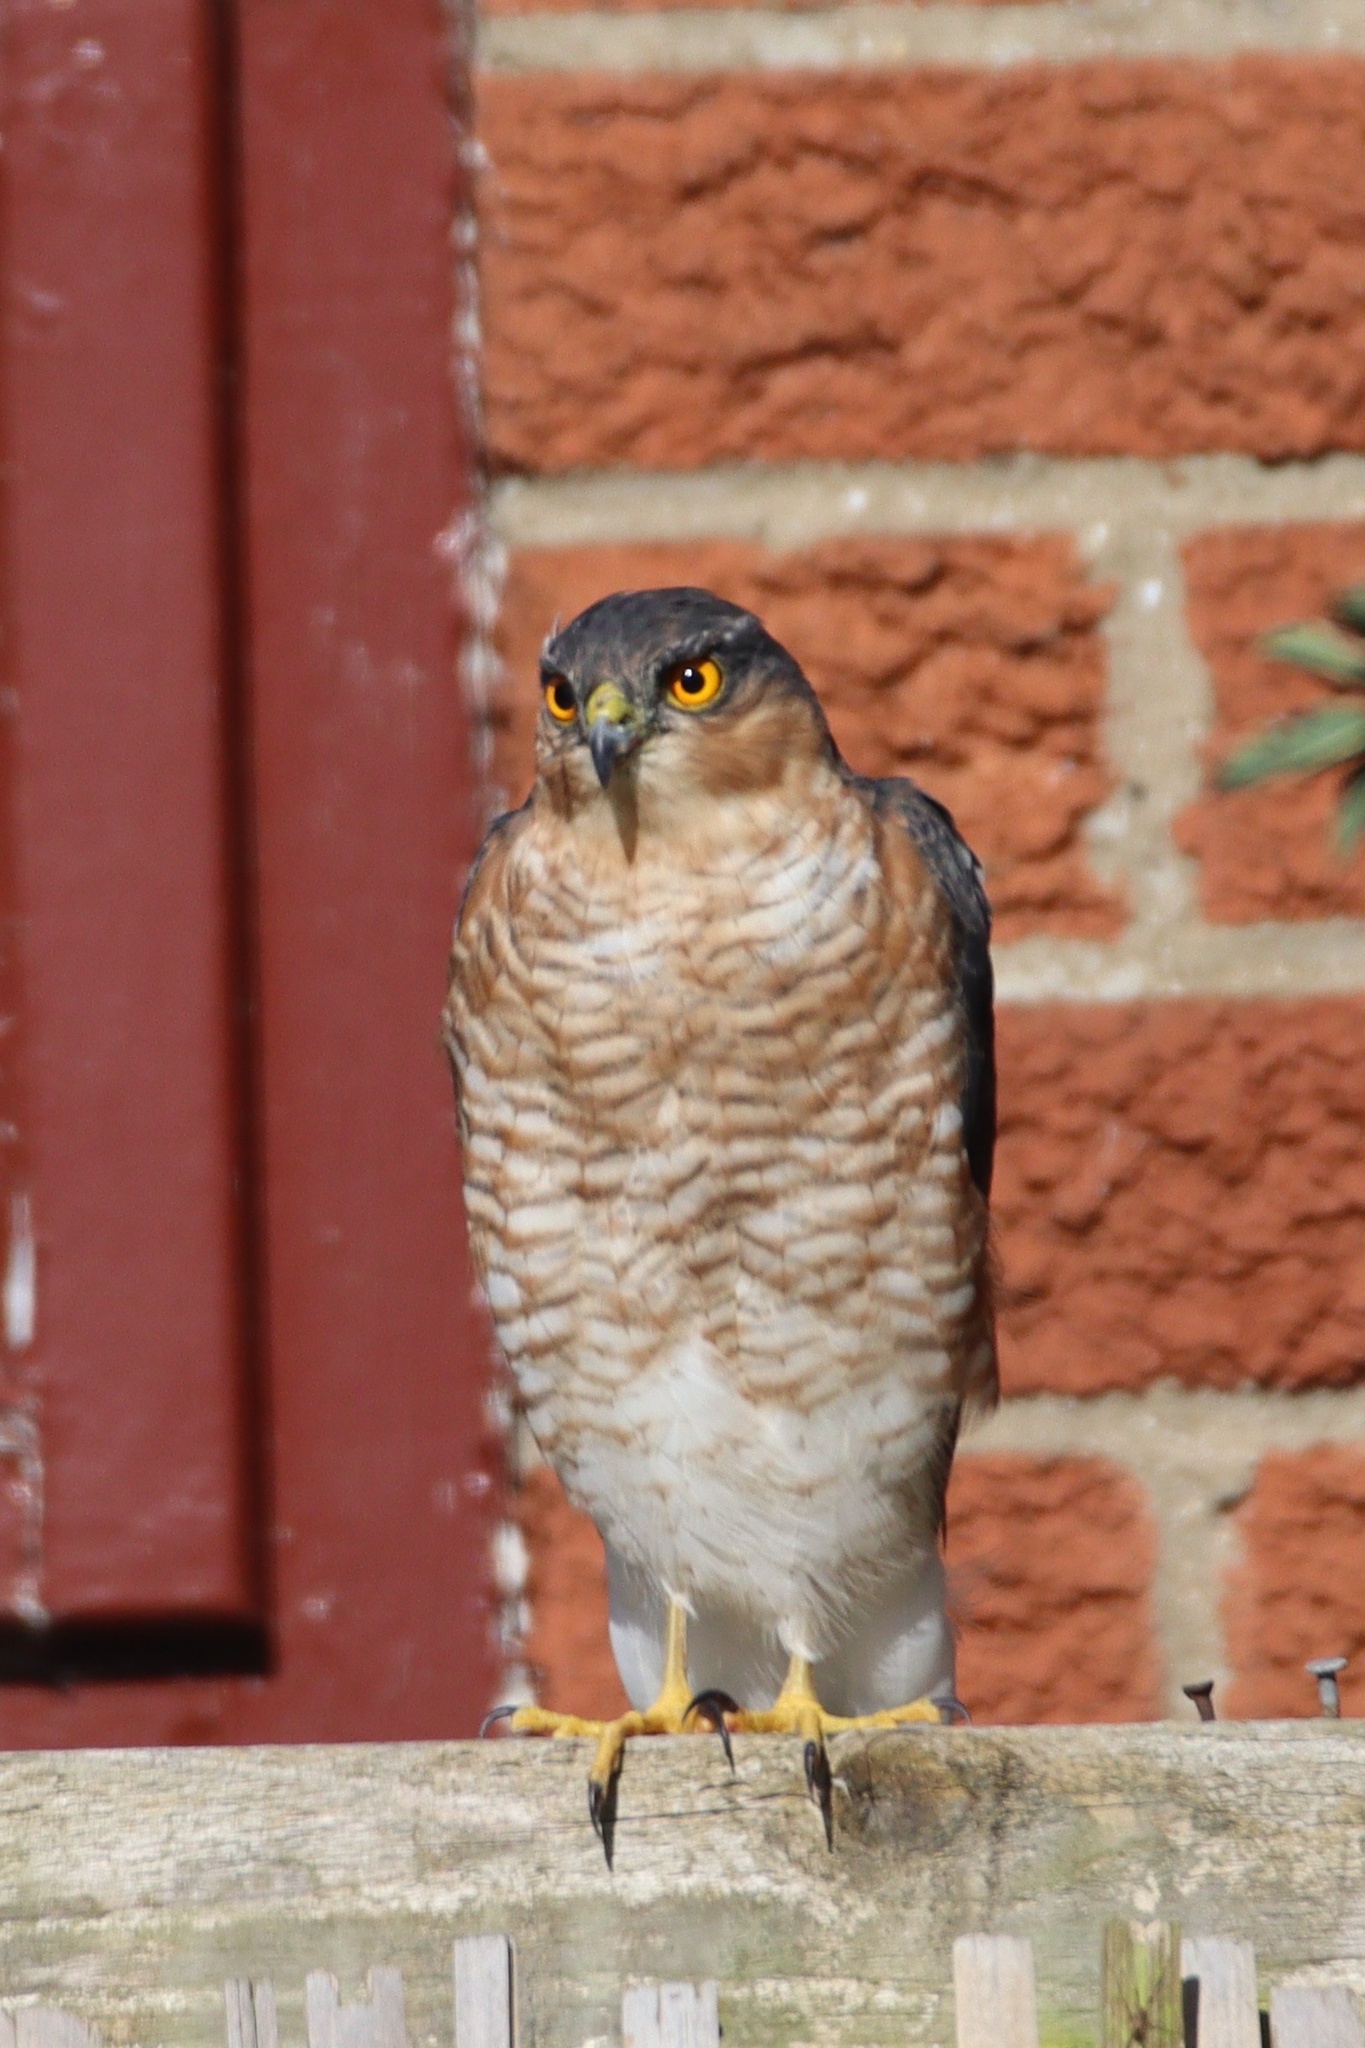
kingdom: Animalia
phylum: Chordata
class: Aves
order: Accipitriformes
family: Accipitridae
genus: Accipiter
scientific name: Accipiter nisus
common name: Eurasian sparrowhawk
